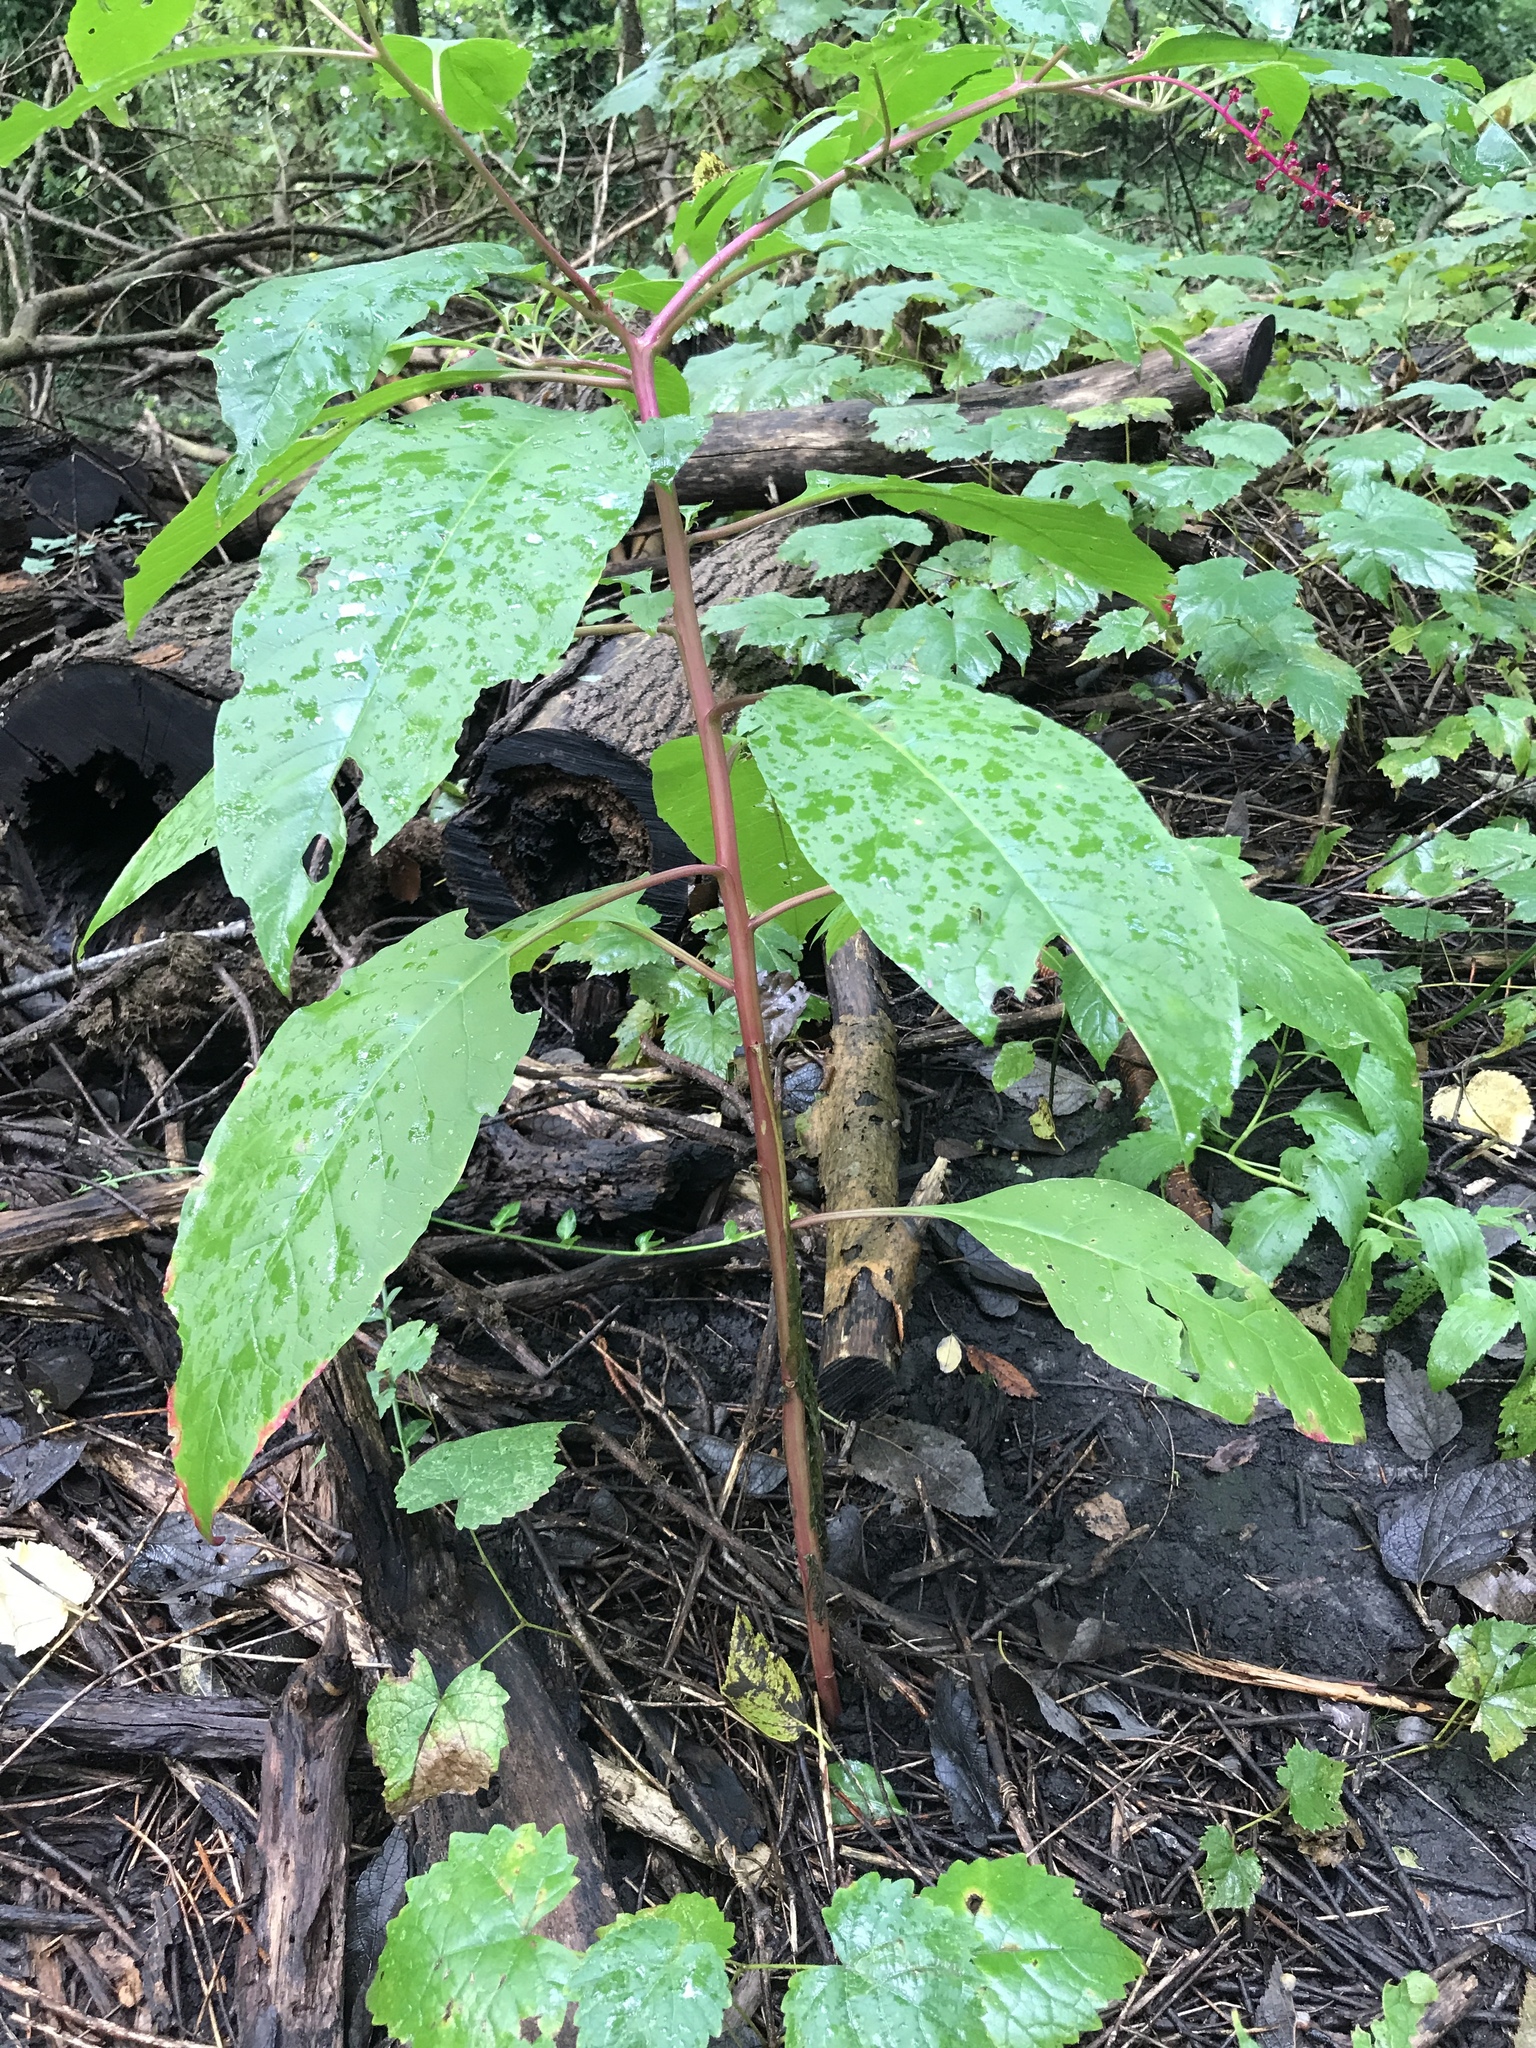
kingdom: Plantae
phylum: Tracheophyta
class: Magnoliopsida
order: Caryophyllales
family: Phytolaccaceae
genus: Phytolacca
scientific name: Phytolacca americana
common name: American pokeweed
